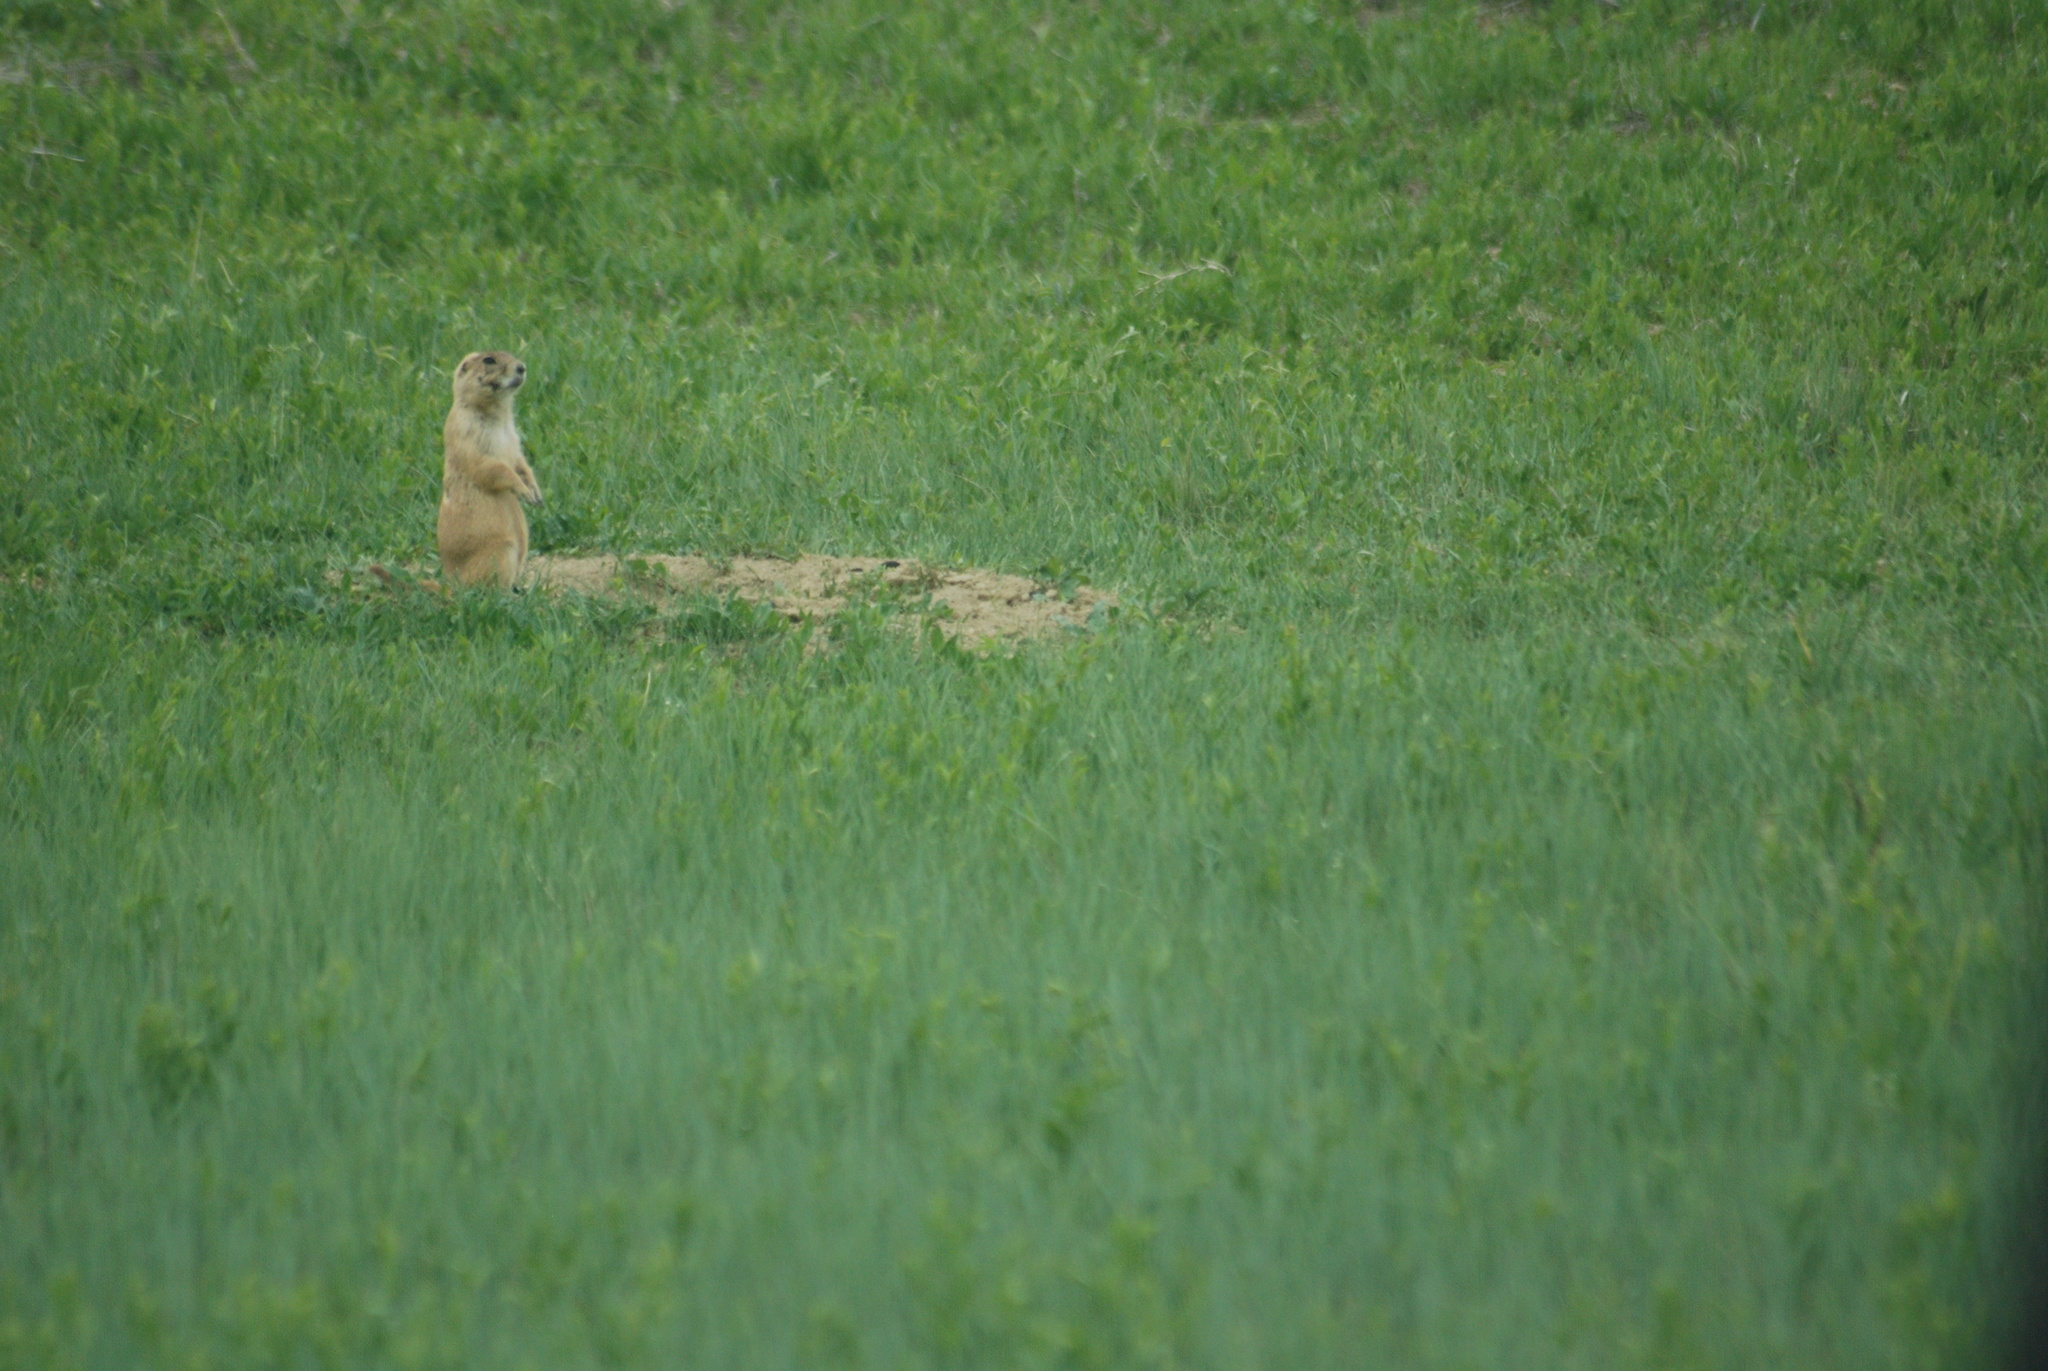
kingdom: Animalia
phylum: Chordata
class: Mammalia
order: Rodentia
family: Sciuridae
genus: Cynomys
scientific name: Cynomys ludovicianus
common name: Black-tailed prairie dog
